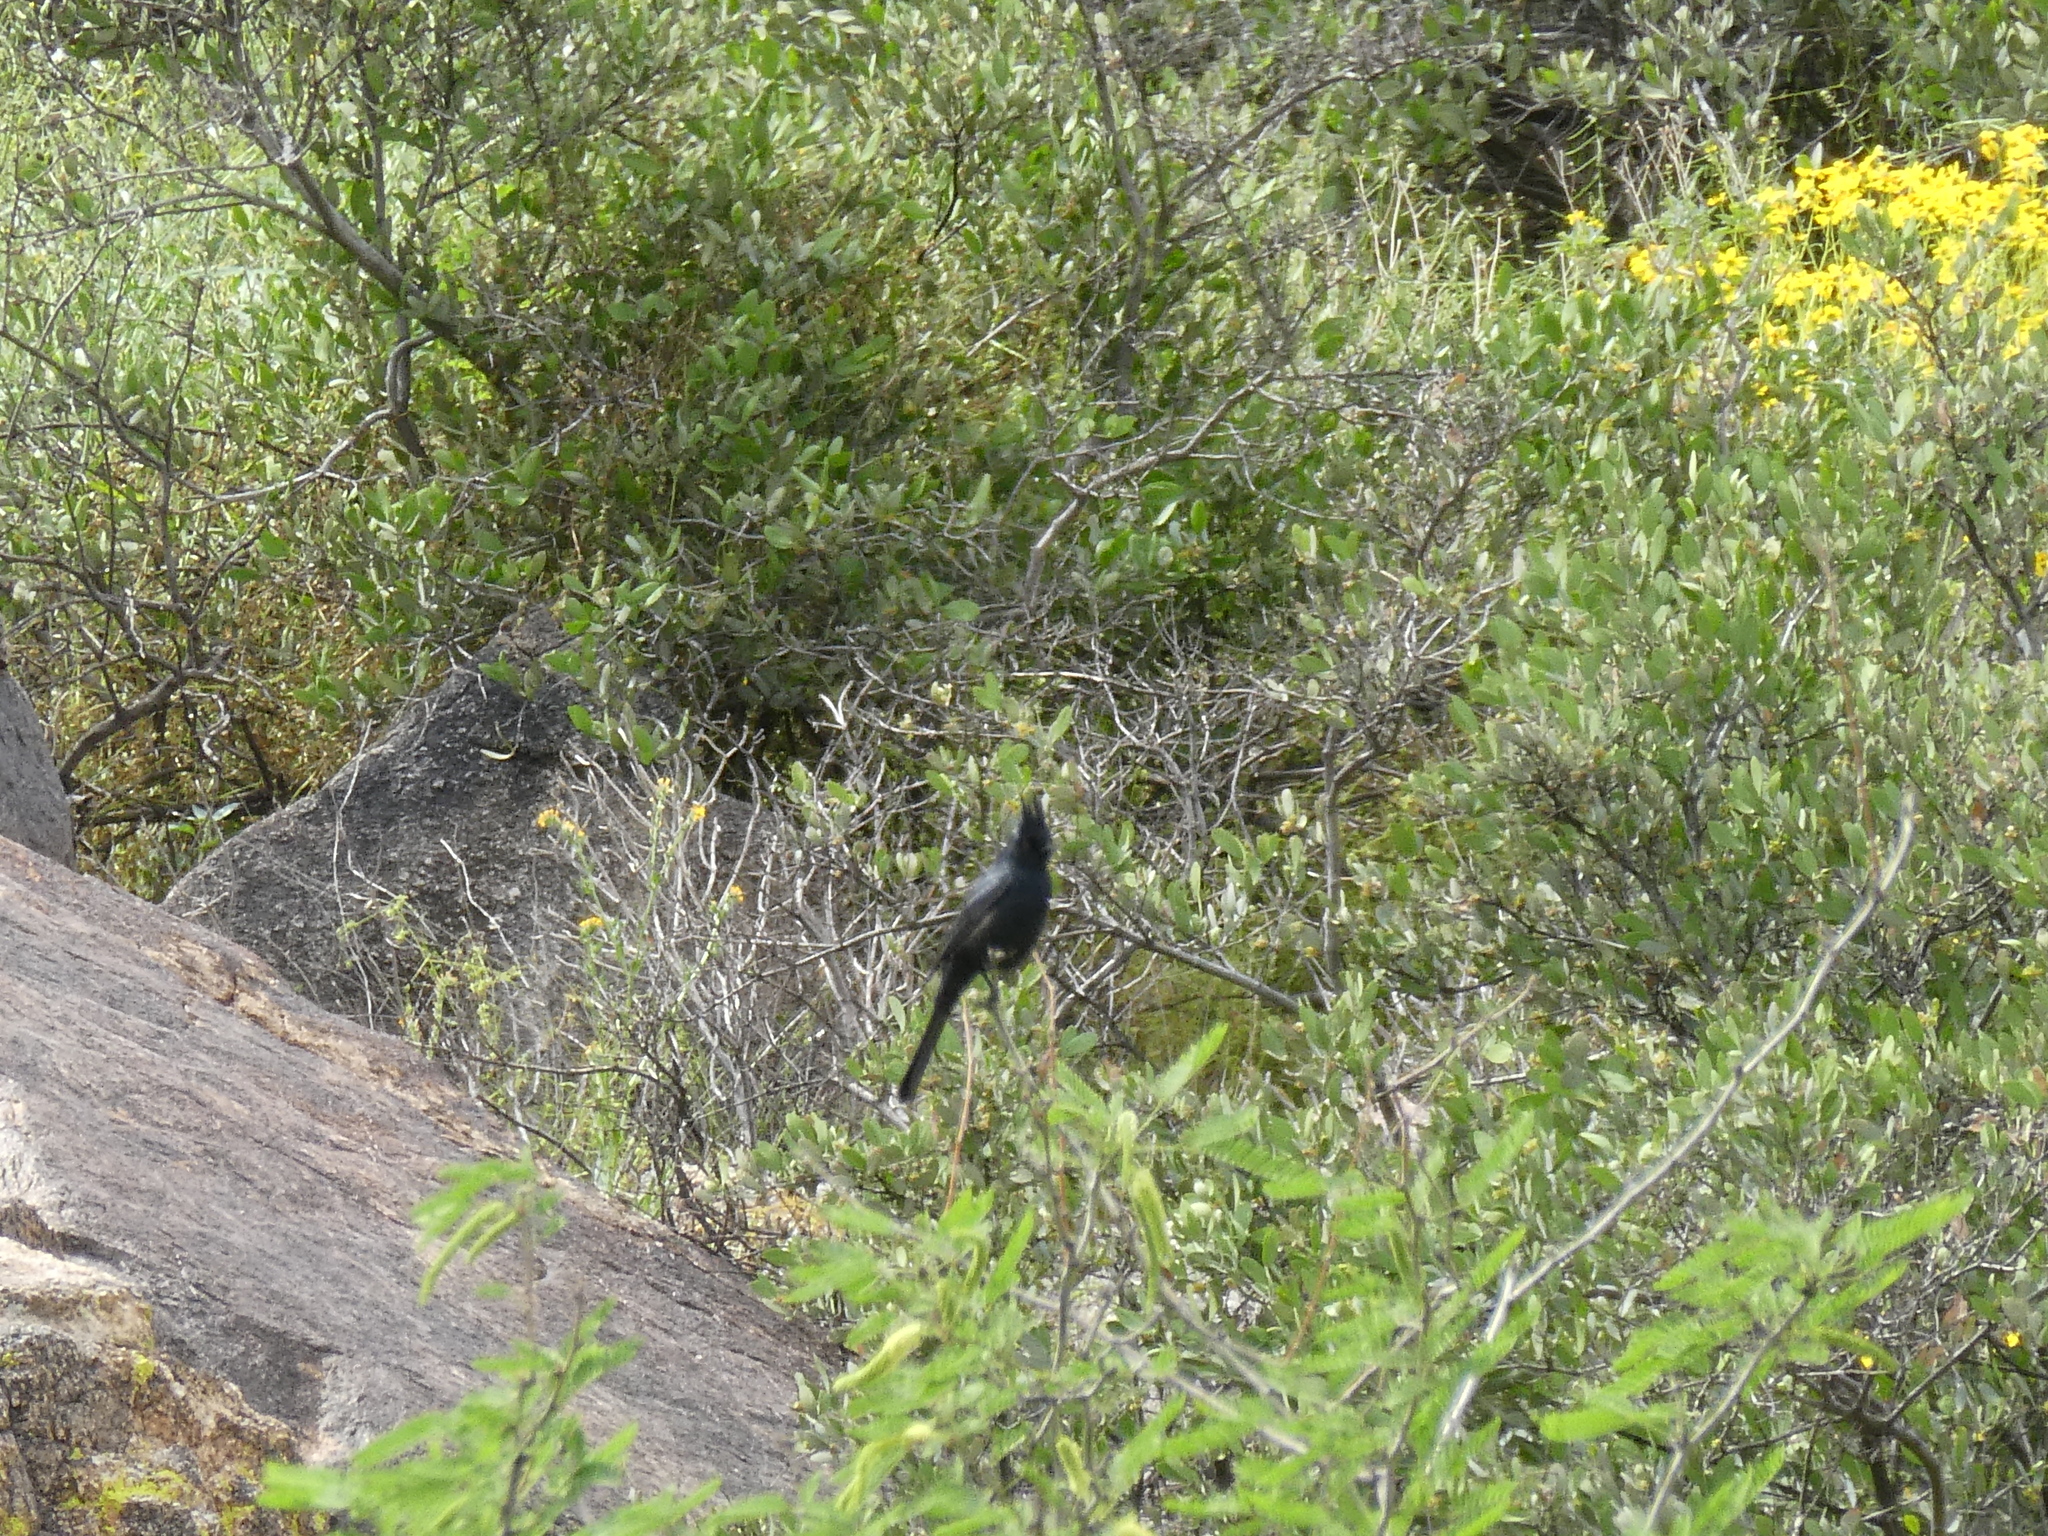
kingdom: Animalia
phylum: Chordata
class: Aves
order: Passeriformes
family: Ptilogonatidae
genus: Phainopepla
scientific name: Phainopepla nitens
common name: Phainopepla
